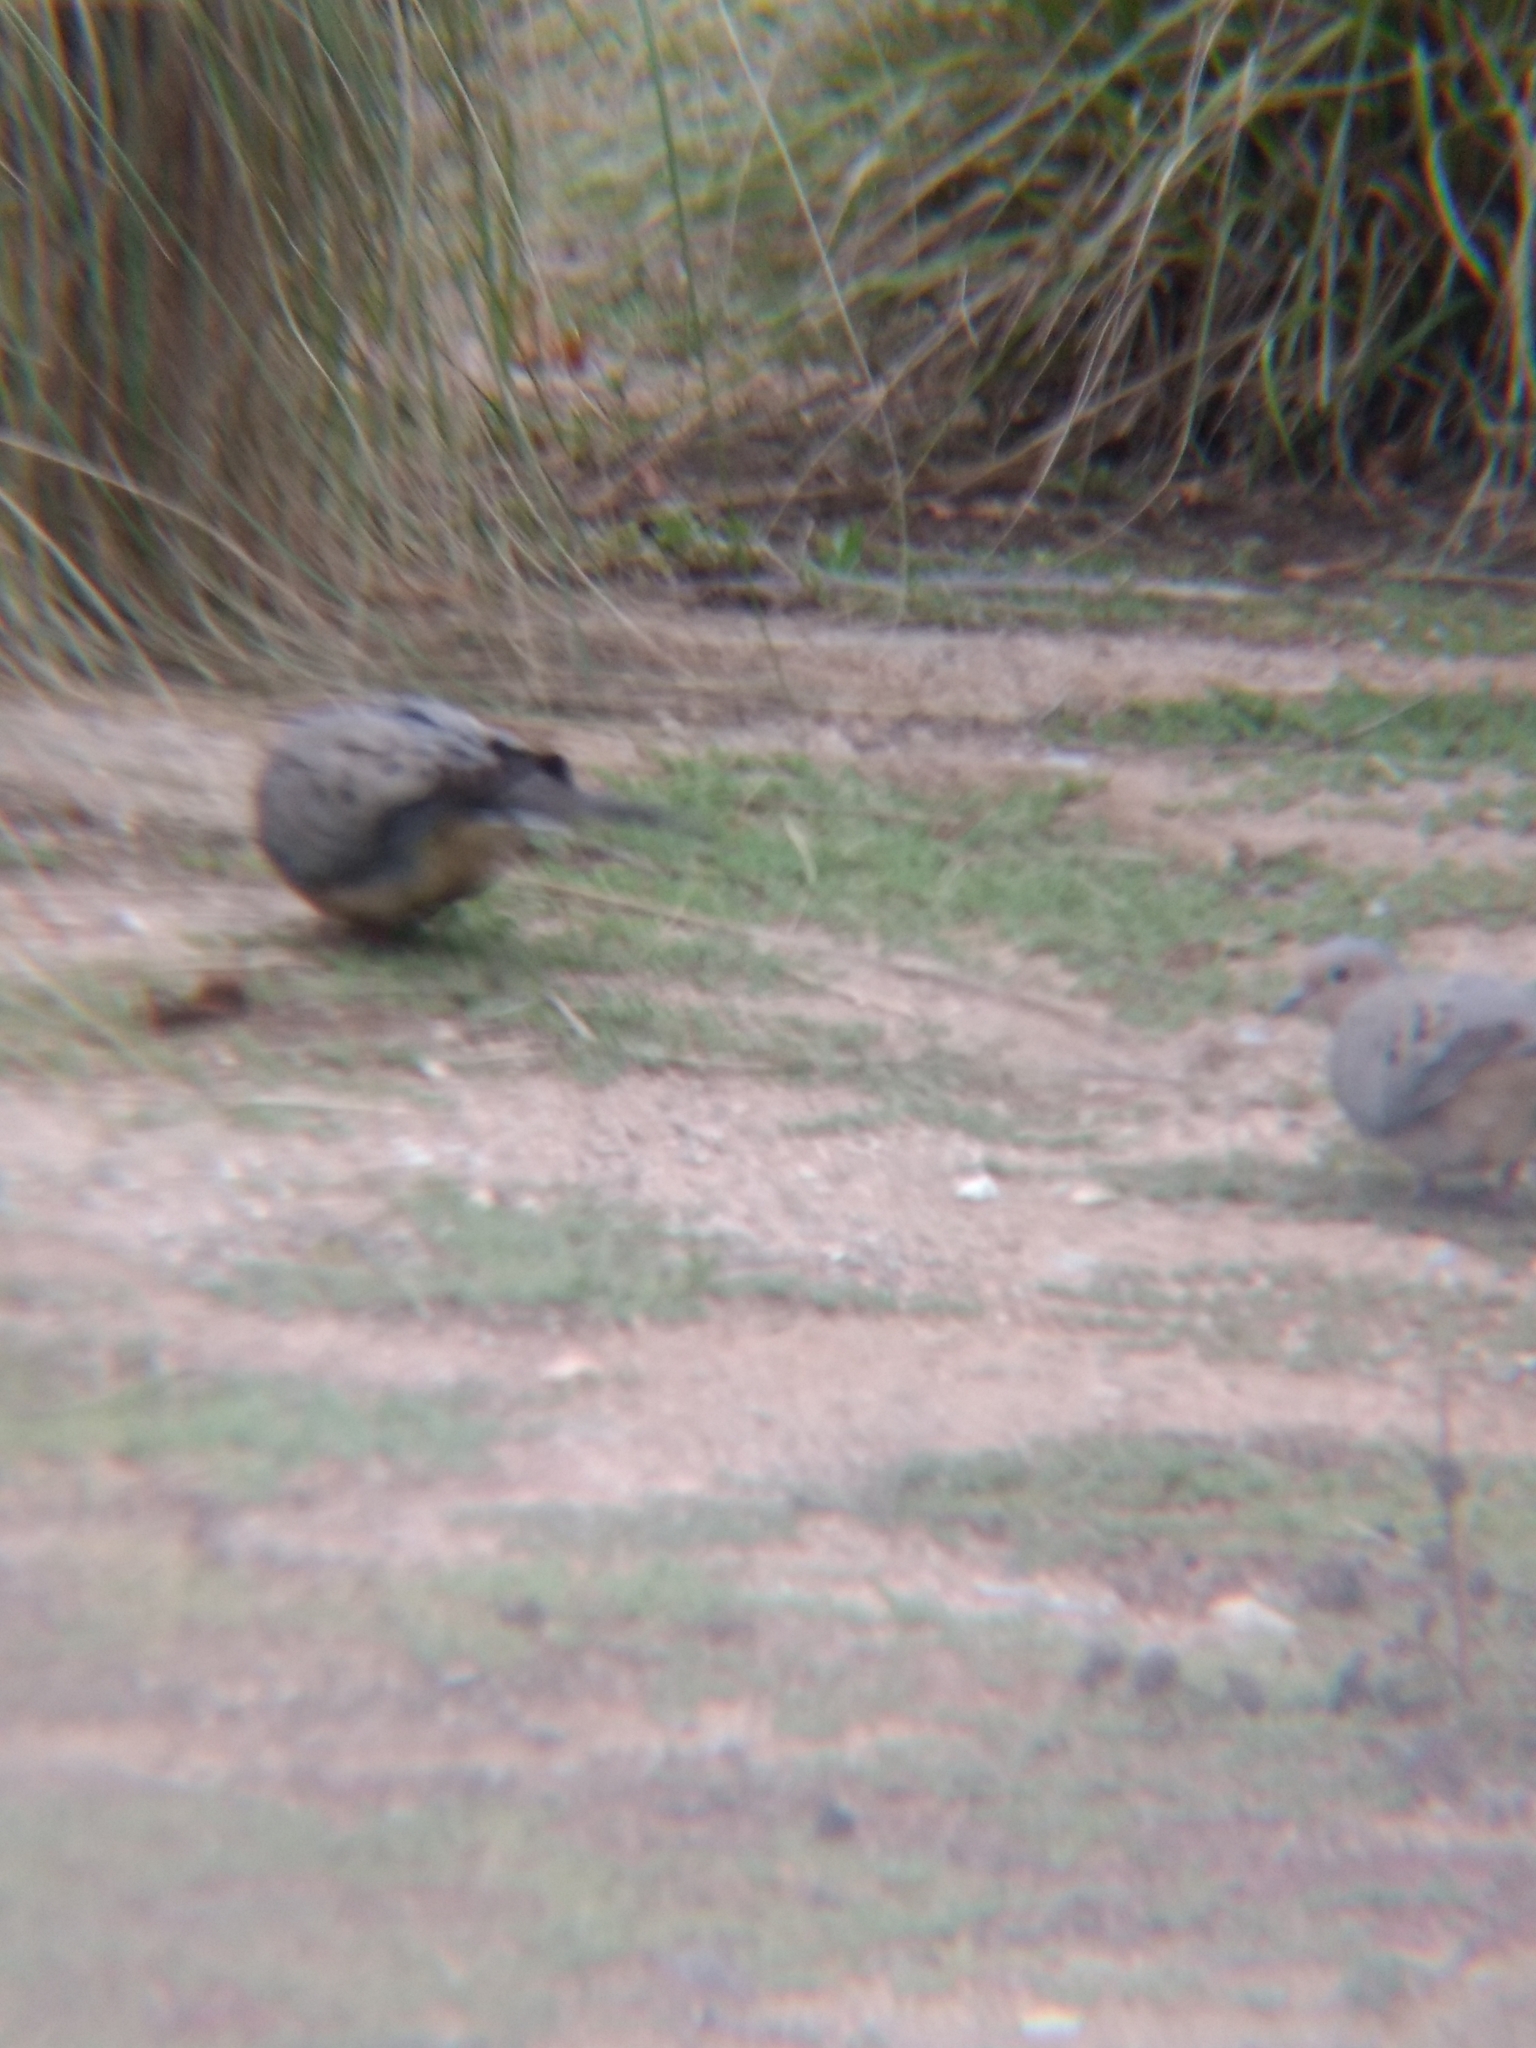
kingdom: Animalia
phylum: Chordata
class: Aves
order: Columbiformes
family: Columbidae
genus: Zenaida
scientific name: Zenaida macroura
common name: Mourning dove
